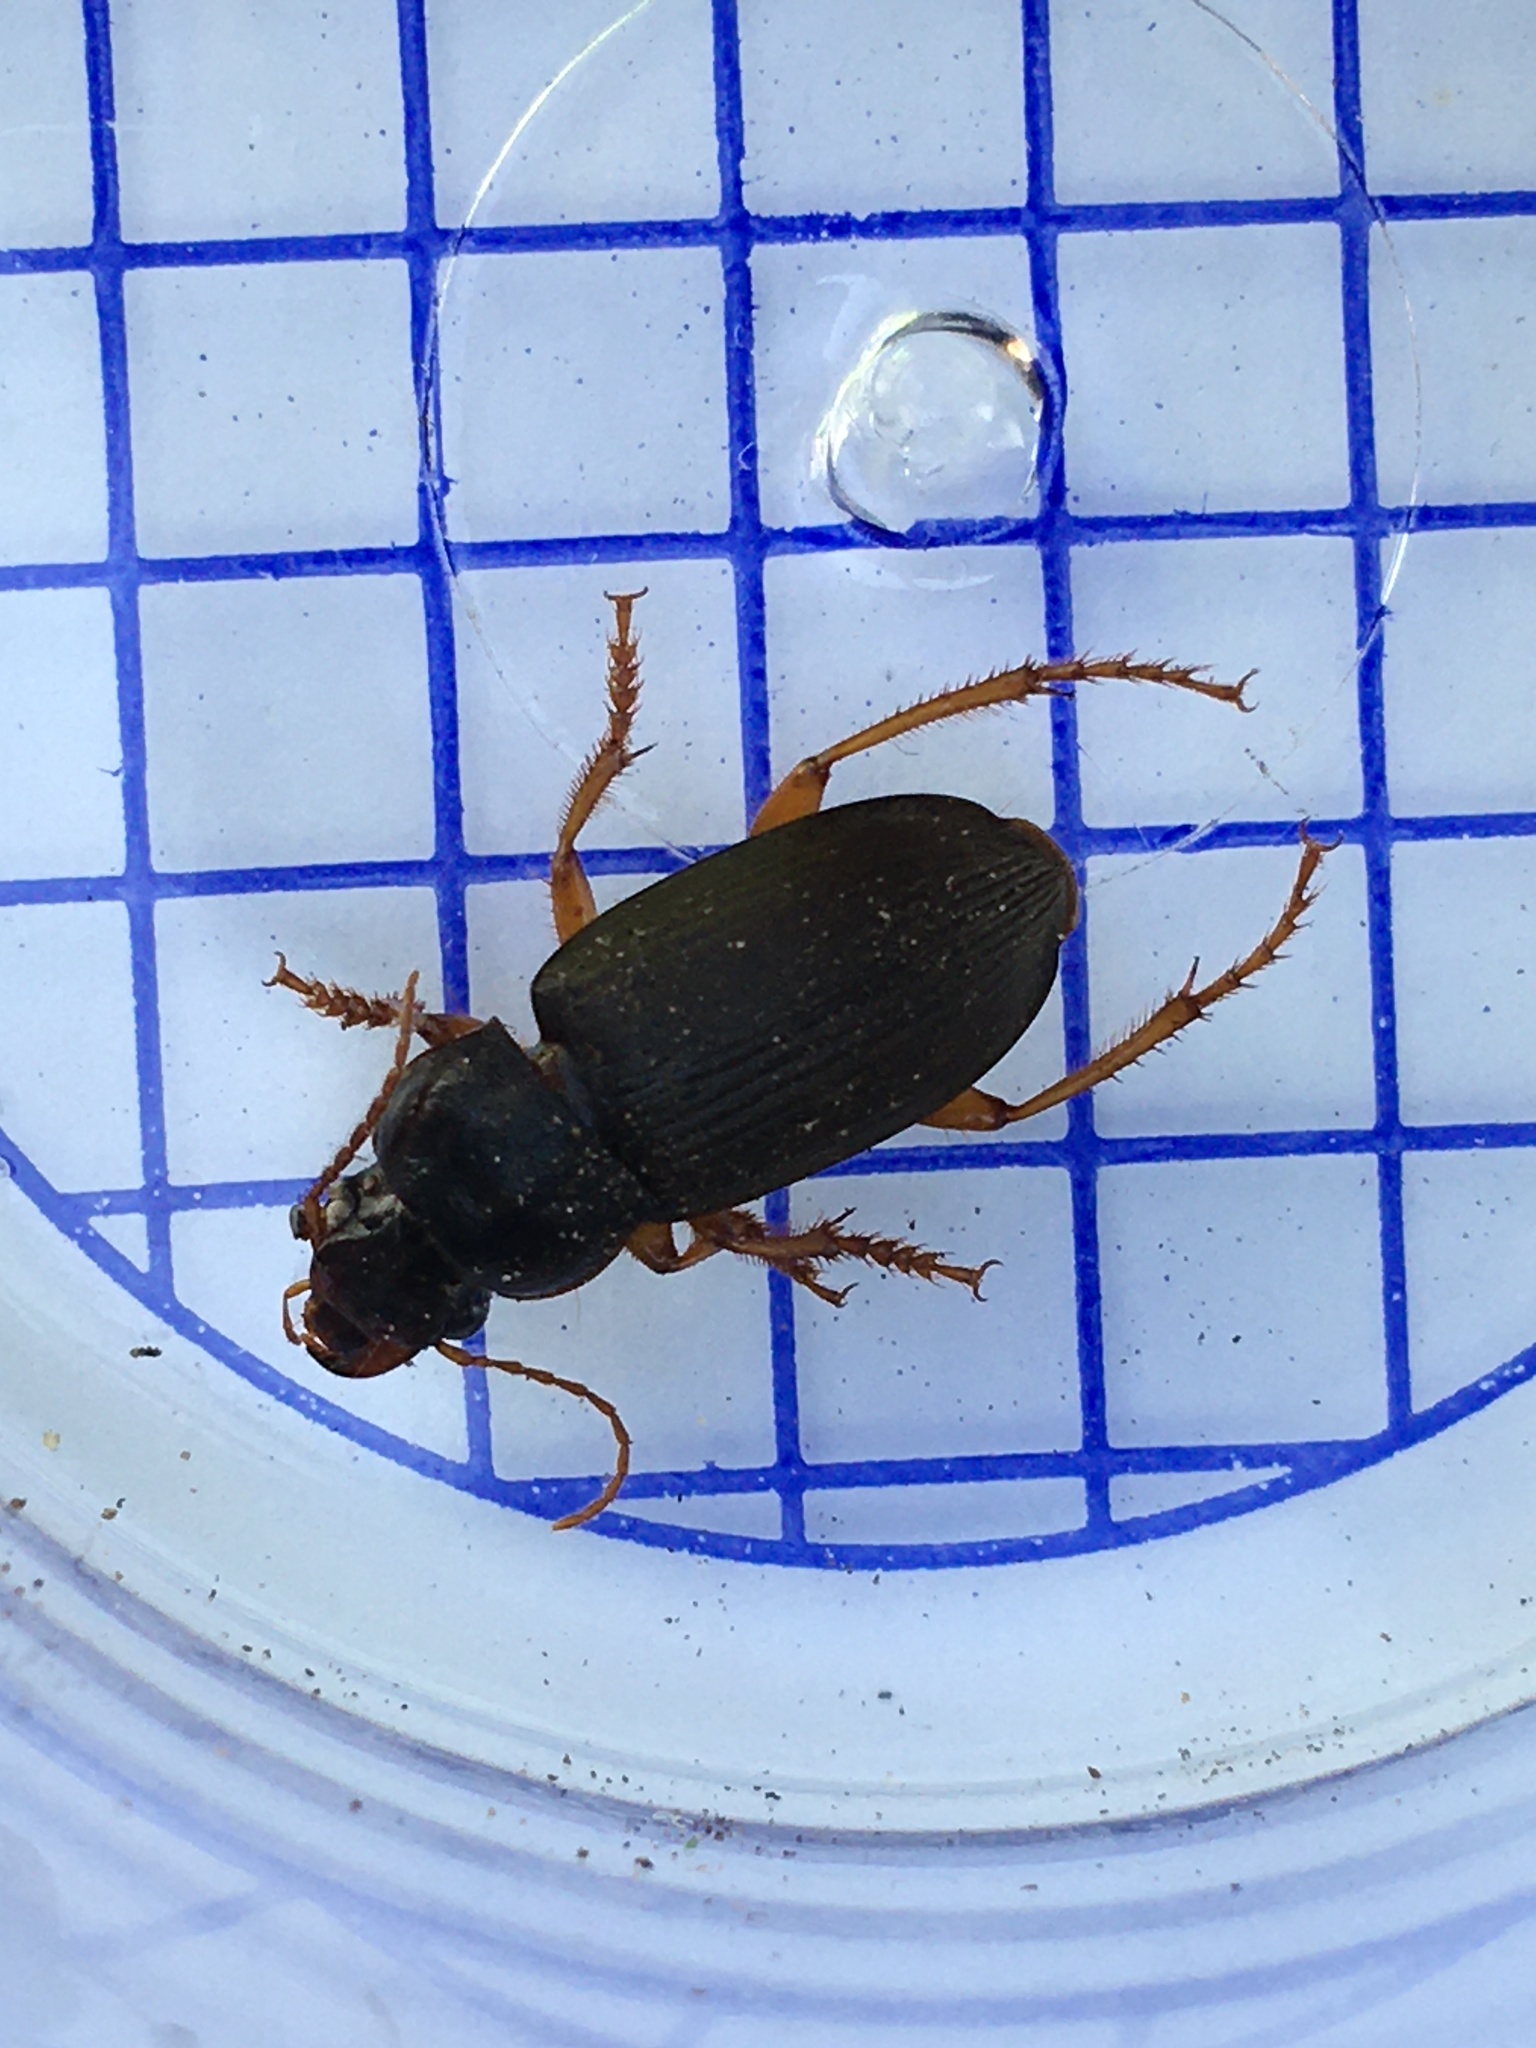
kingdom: Animalia
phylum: Arthropoda
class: Insecta
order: Coleoptera
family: Carabidae
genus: Harpalus
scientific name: Harpalus rufipes
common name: Strawberry harp ground beetle
